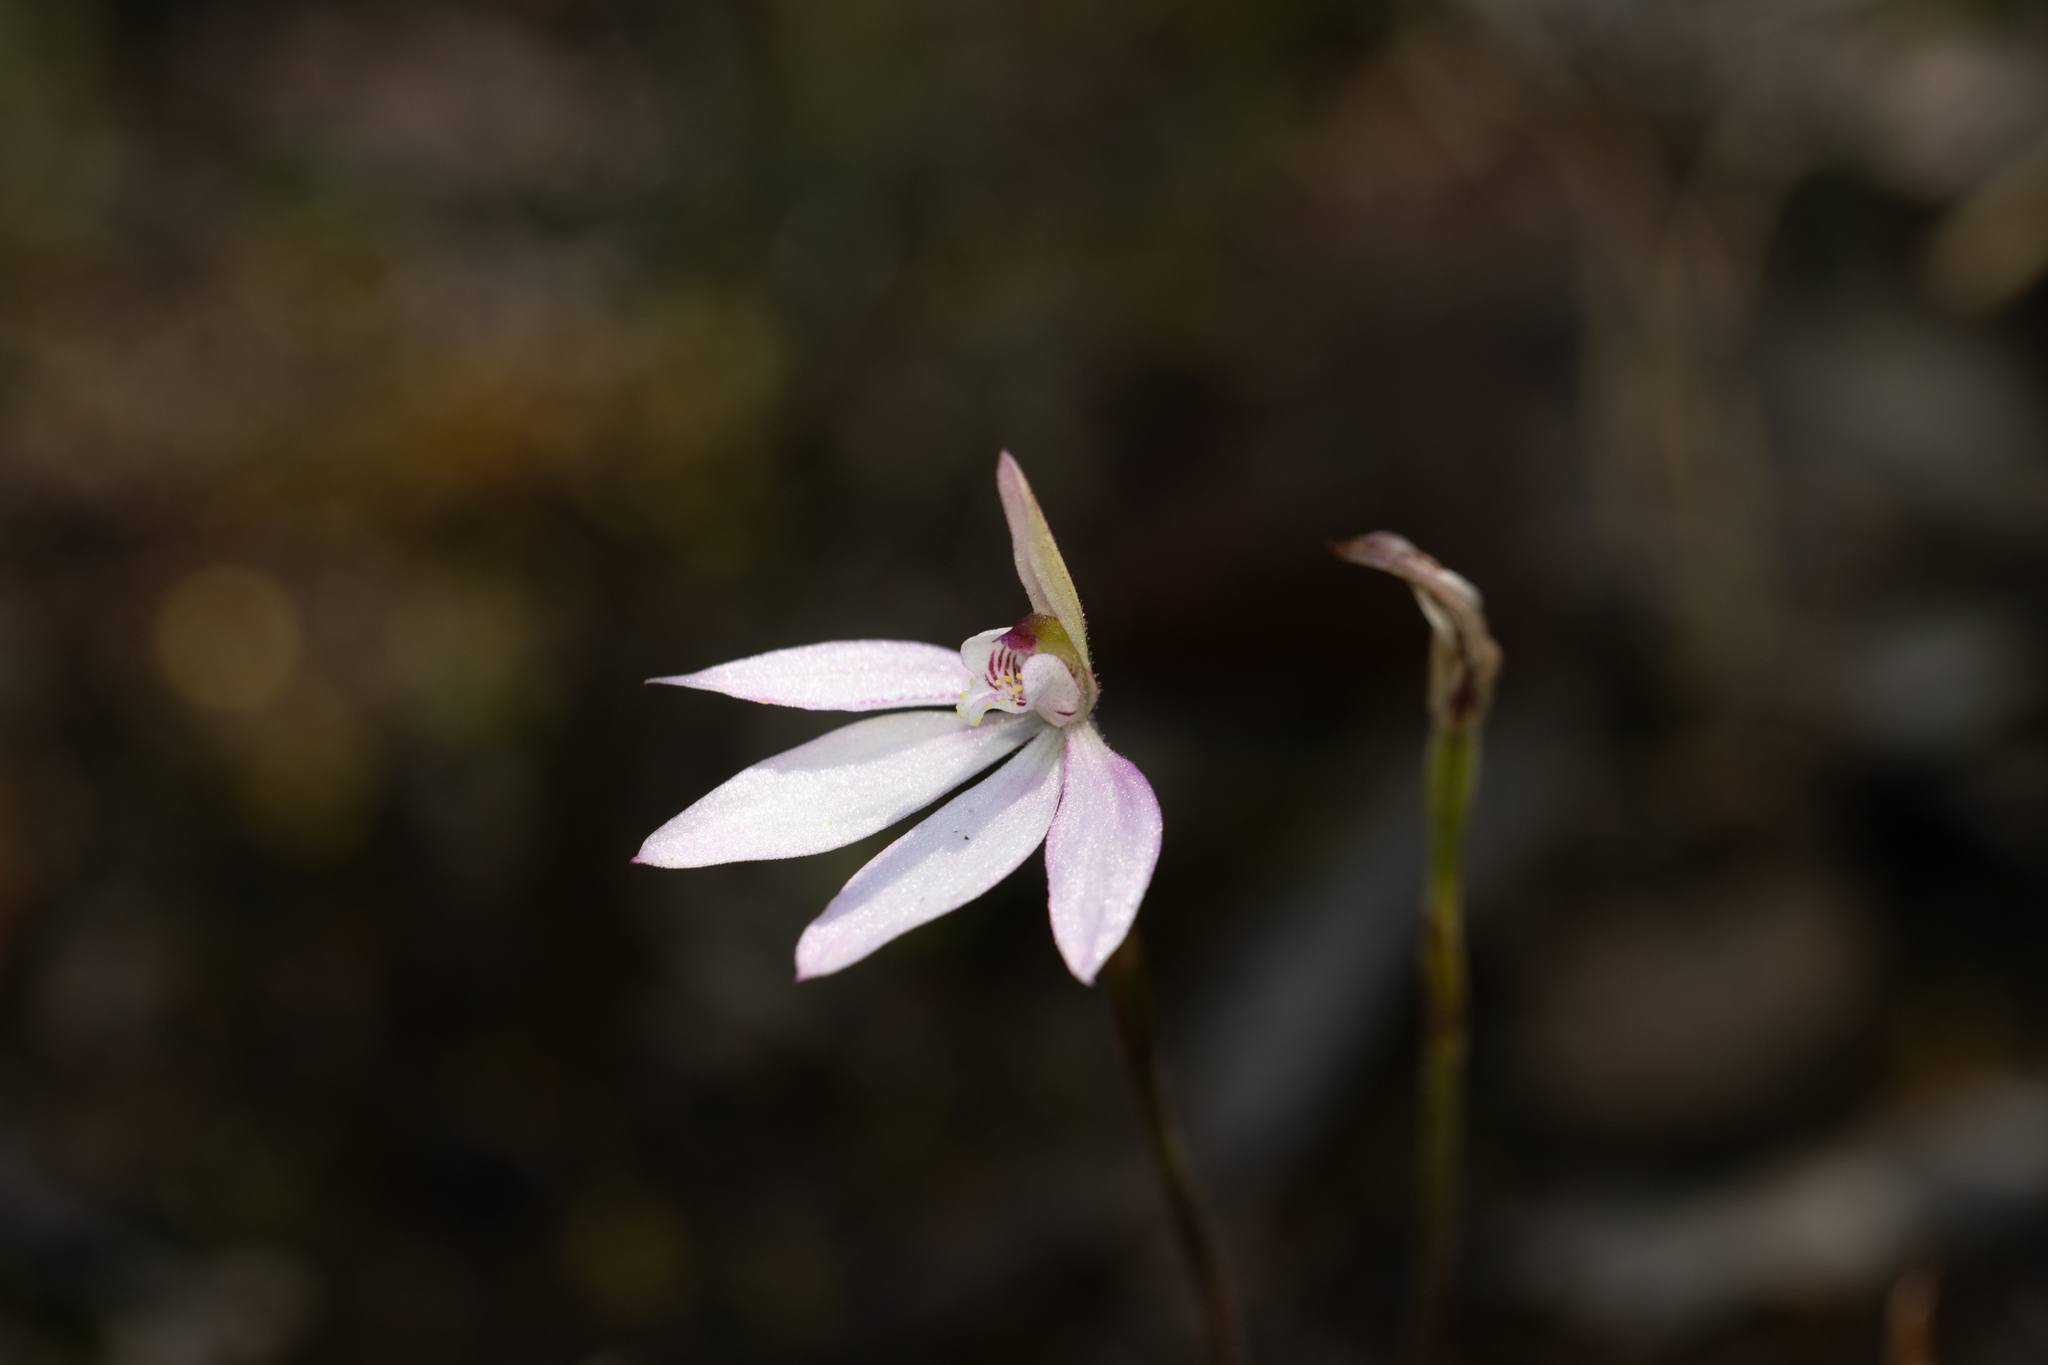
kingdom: Plantae
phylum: Tracheophyta
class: Liliopsida
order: Asparagales
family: Orchidaceae
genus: Caladenia
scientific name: Caladenia carnea
